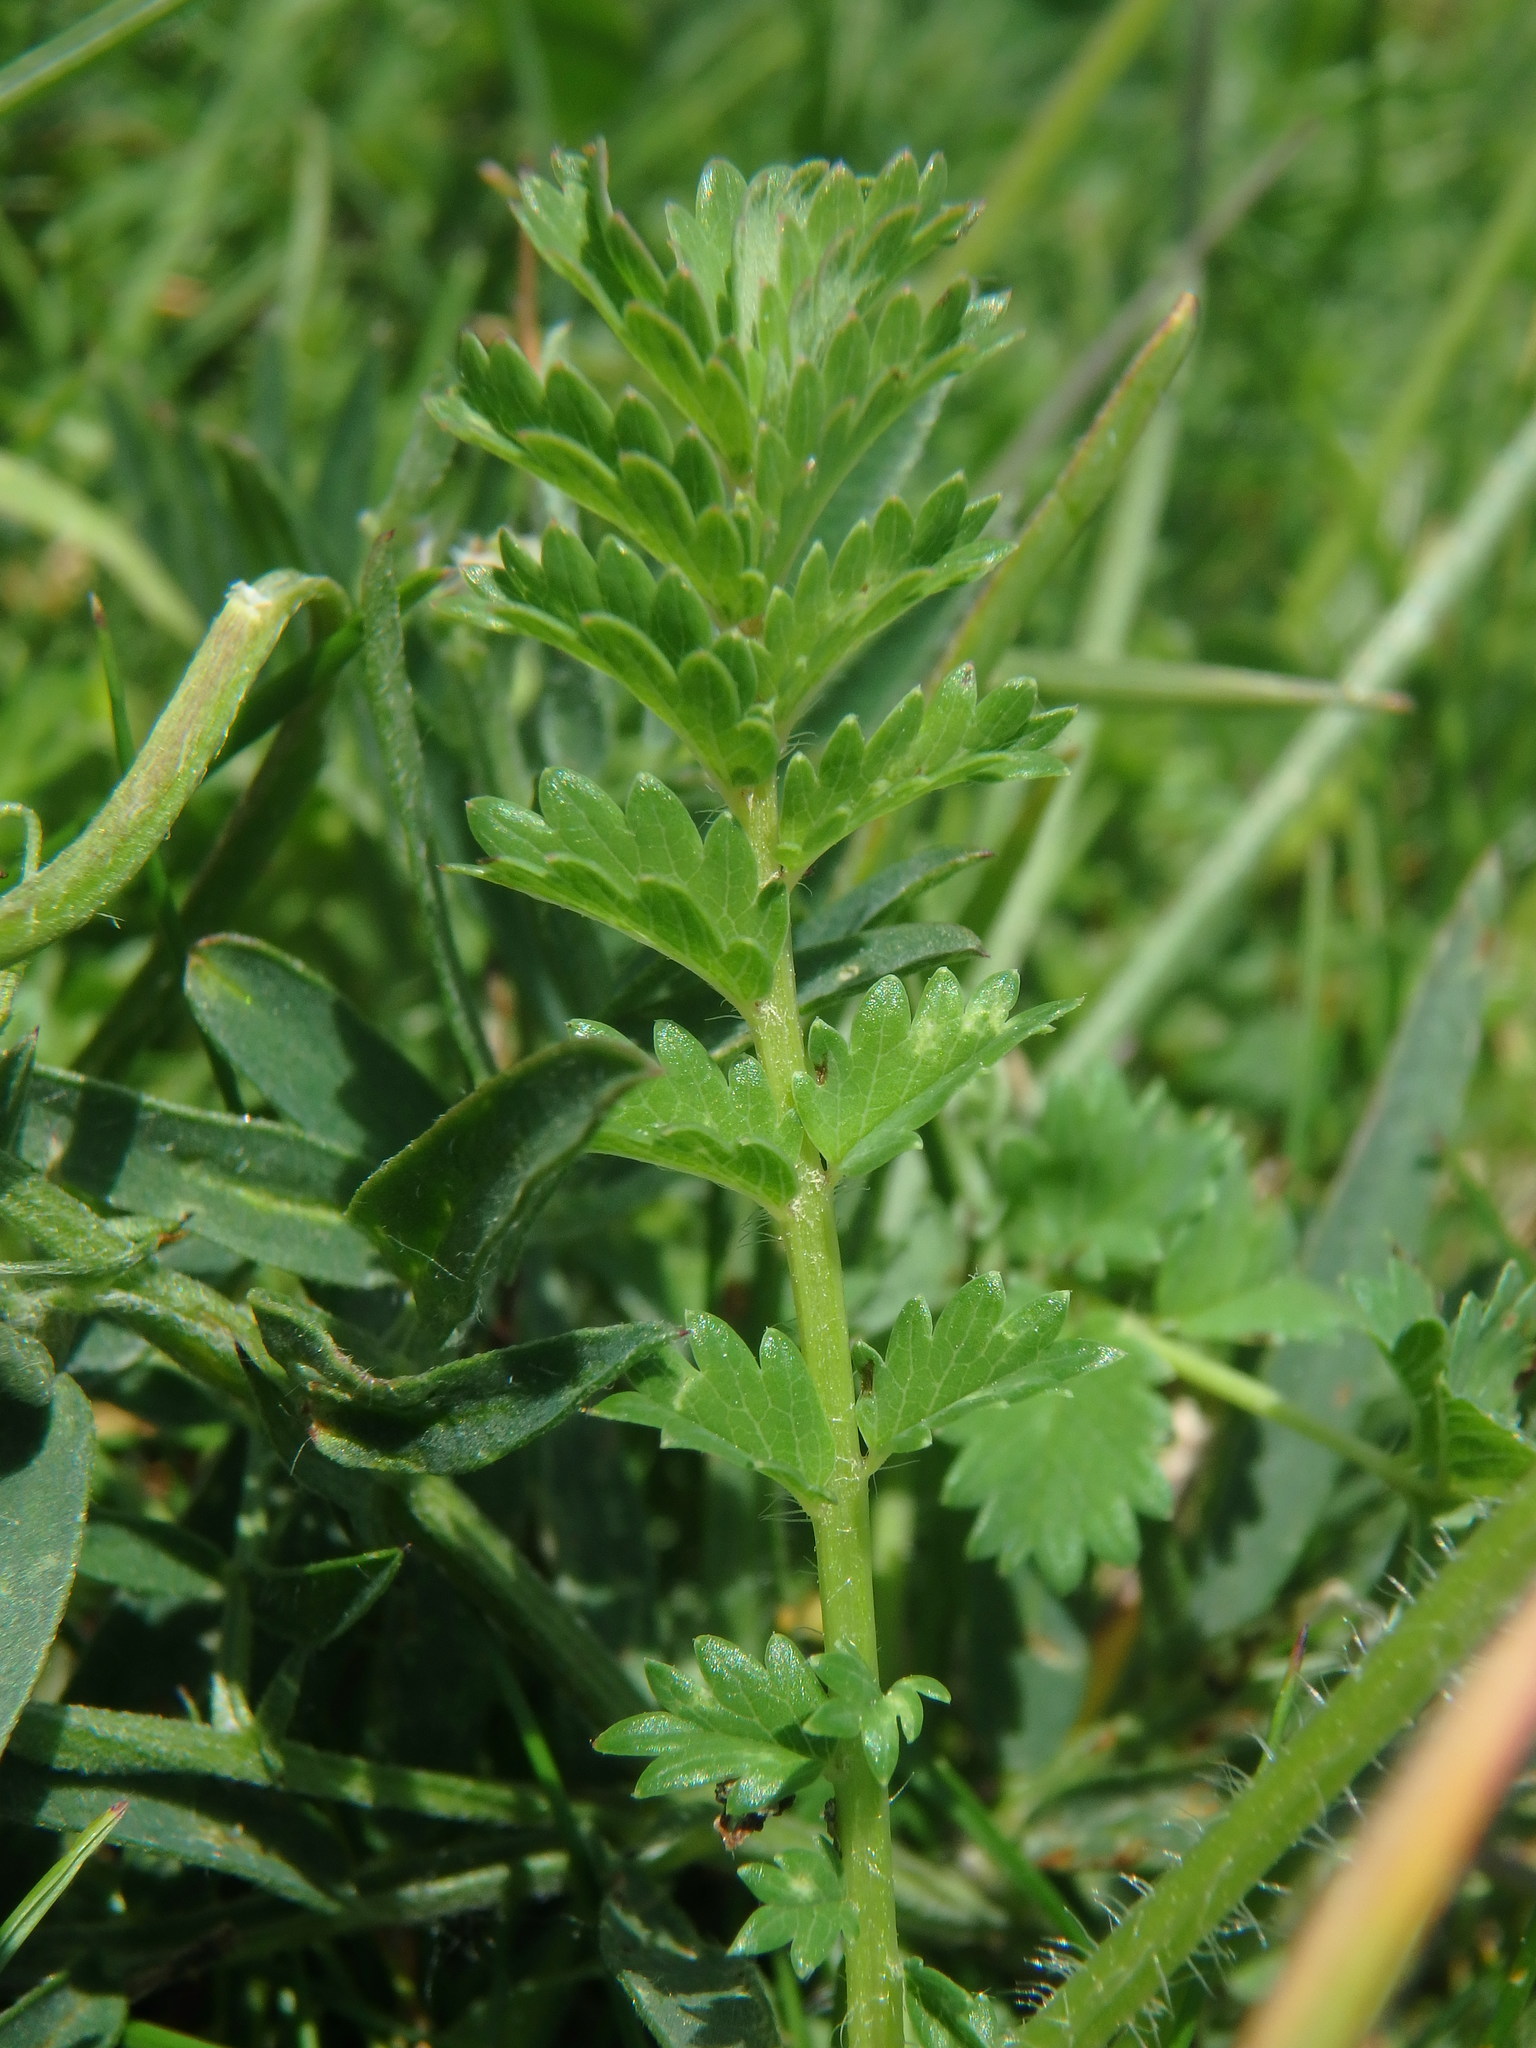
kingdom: Plantae
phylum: Tracheophyta
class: Magnoliopsida
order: Rosales
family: Rosaceae
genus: Poterium
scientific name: Poterium sanguisorba
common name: Salad burnet
